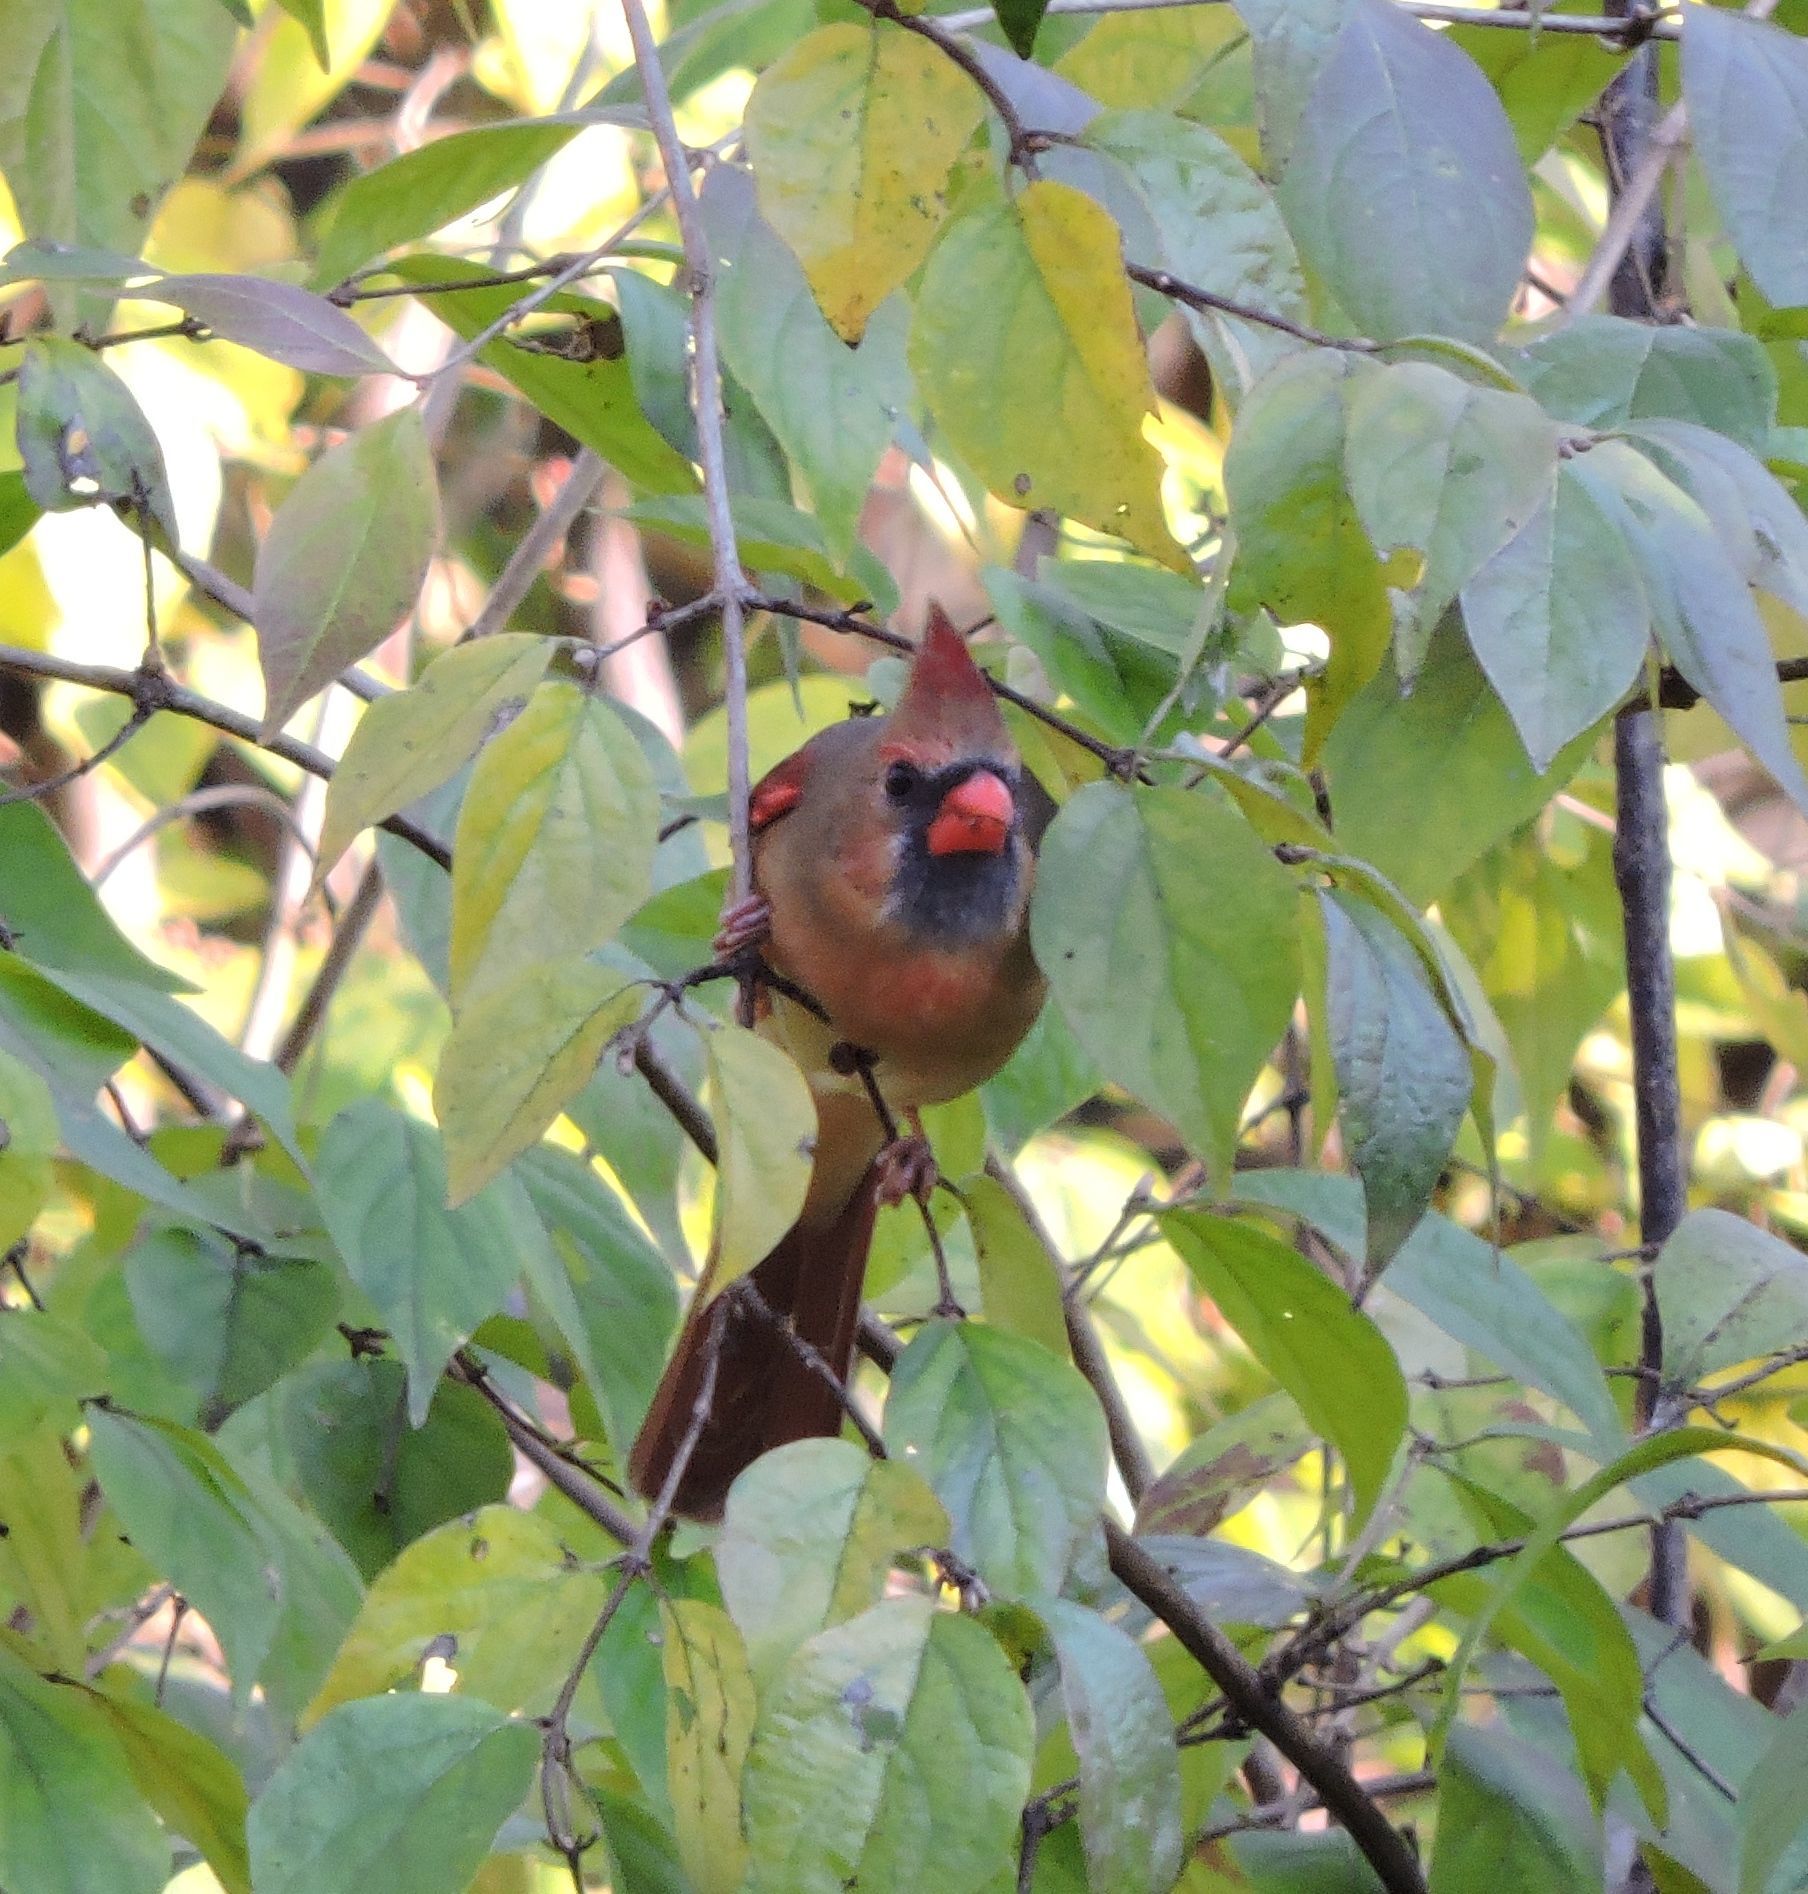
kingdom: Animalia
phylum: Chordata
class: Aves
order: Passeriformes
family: Cardinalidae
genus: Cardinalis
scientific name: Cardinalis cardinalis
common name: Northern cardinal
